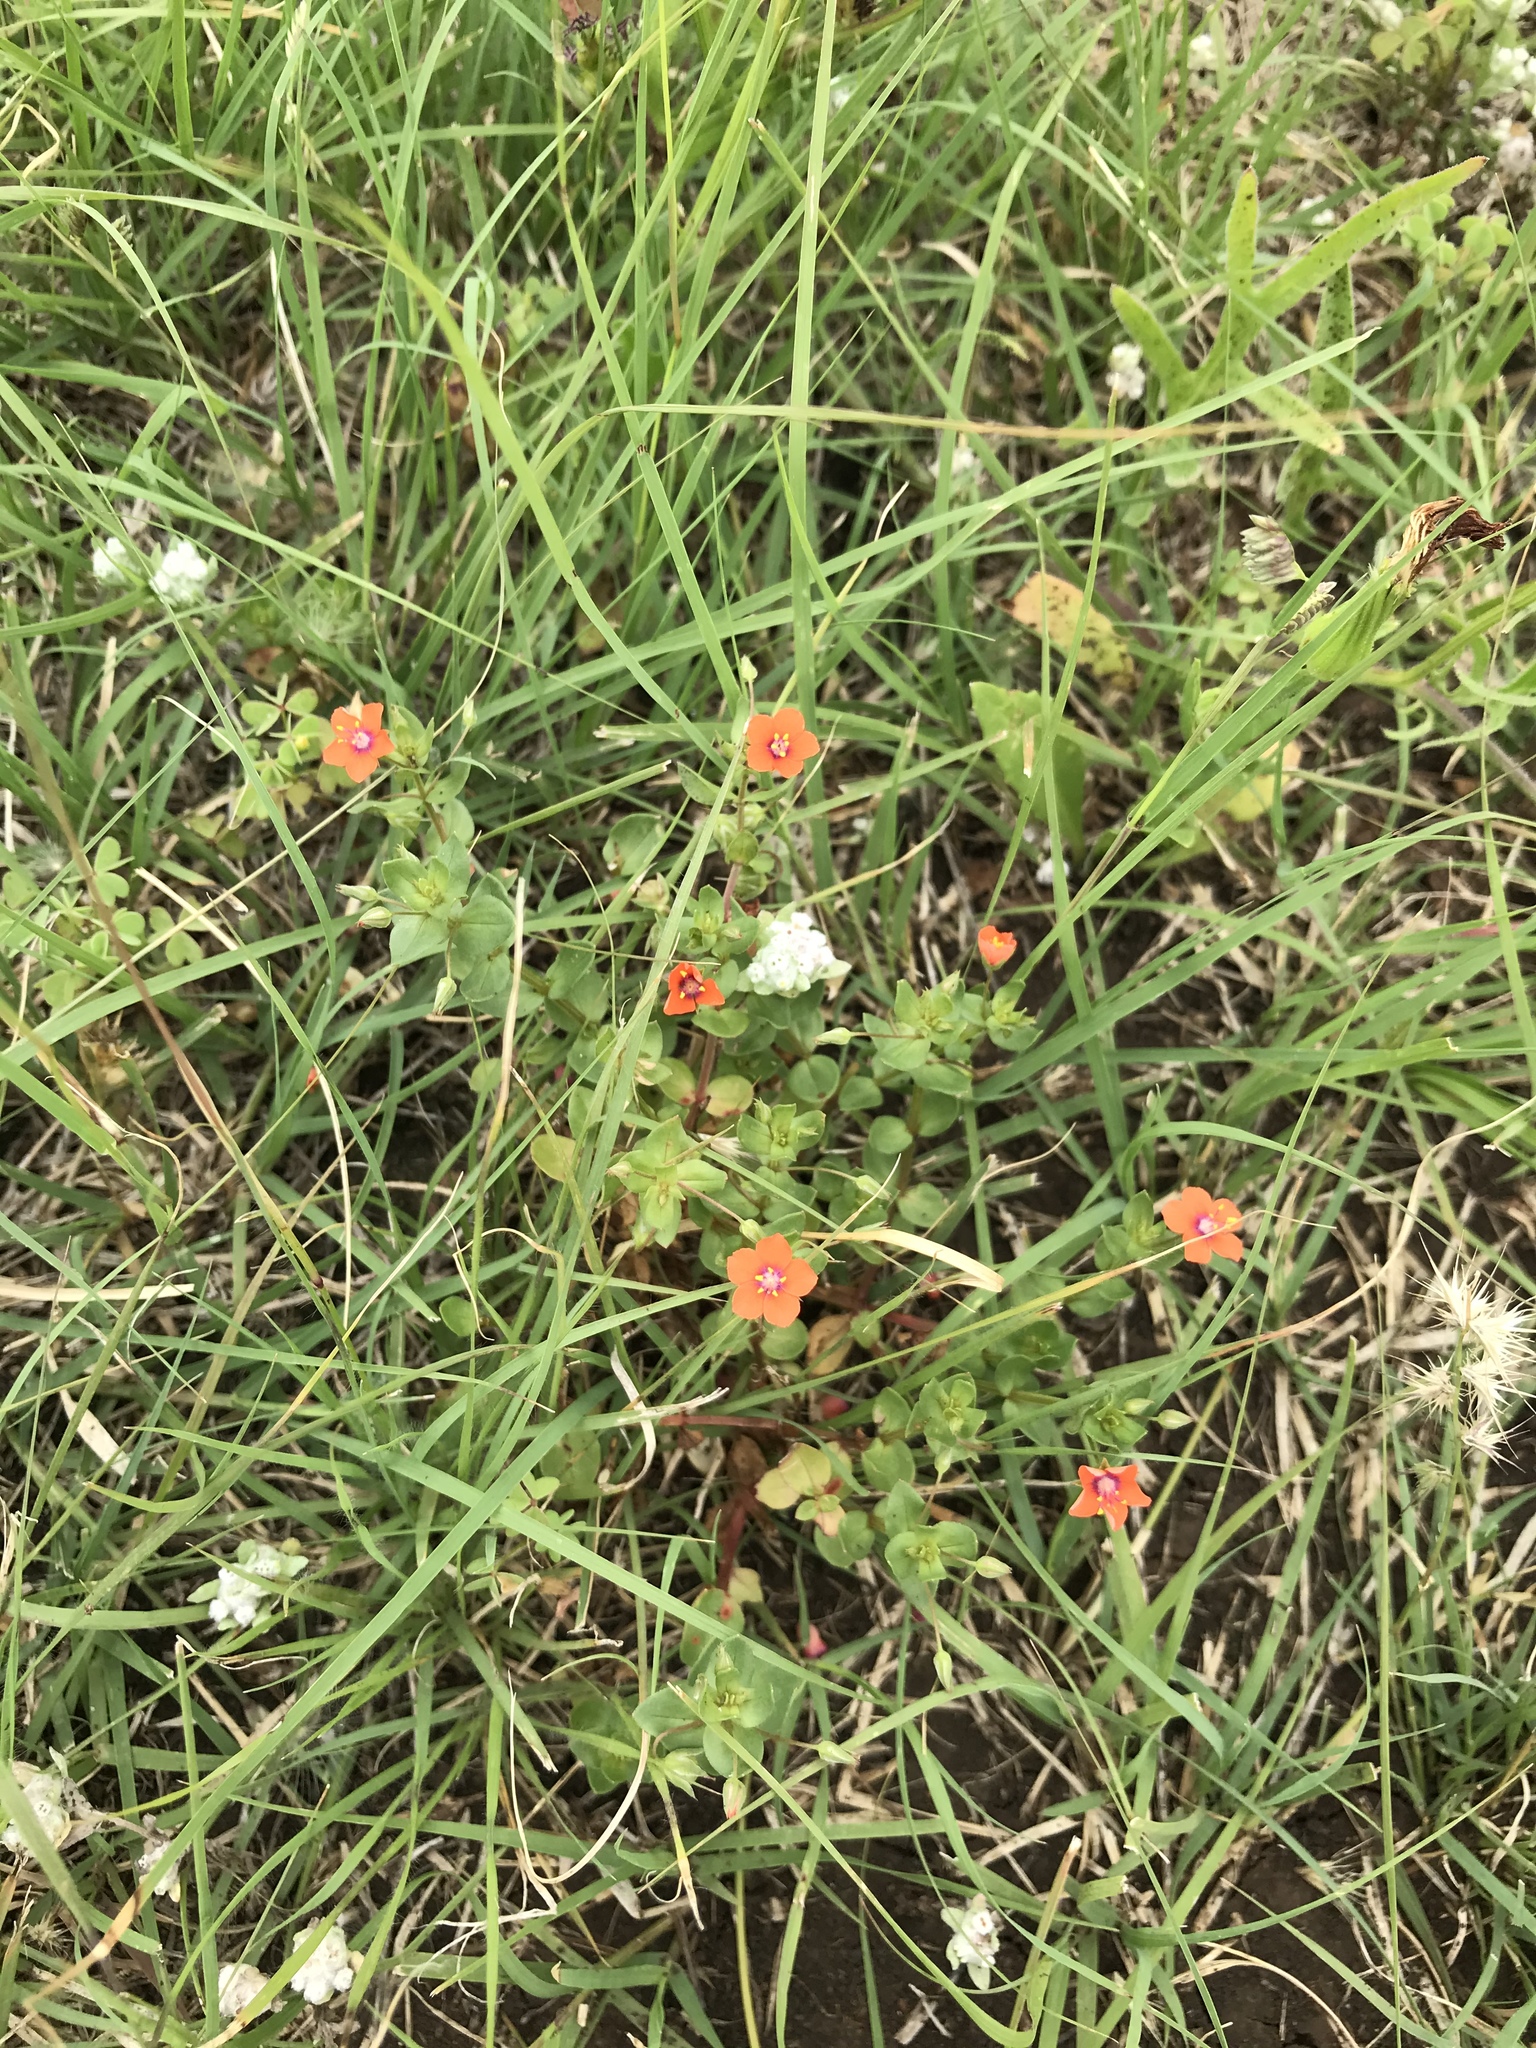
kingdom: Plantae
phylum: Tracheophyta
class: Magnoliopsida
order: Ericales
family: Primulaceae
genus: Lysimachia
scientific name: Lysimachia arvensis
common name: Scarlet pimpernel
